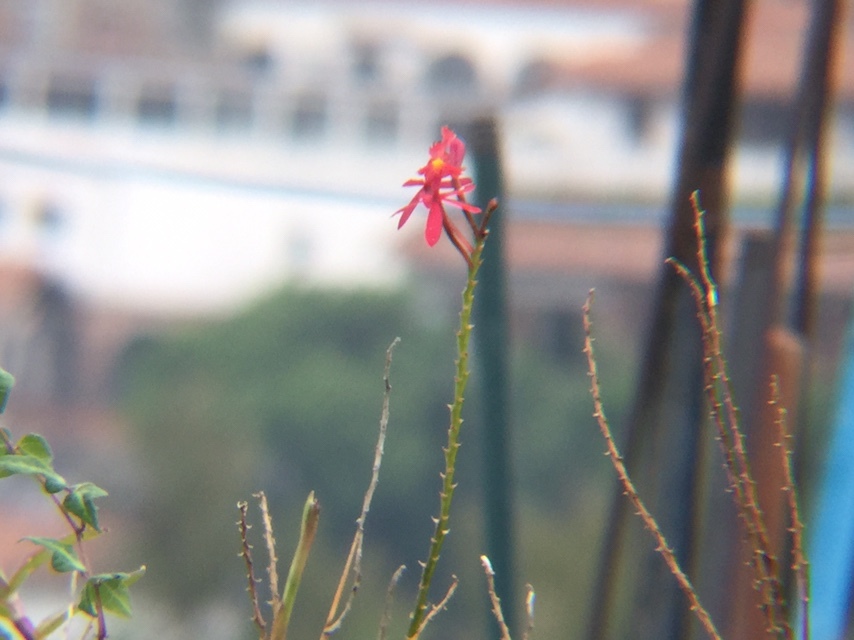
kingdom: Plantae
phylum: Tracheophyta
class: Liliopsida
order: Asparagales
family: Orchidaceae
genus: Epidendrum
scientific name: Epidendrum obrienianum
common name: O'brien's star orchid
